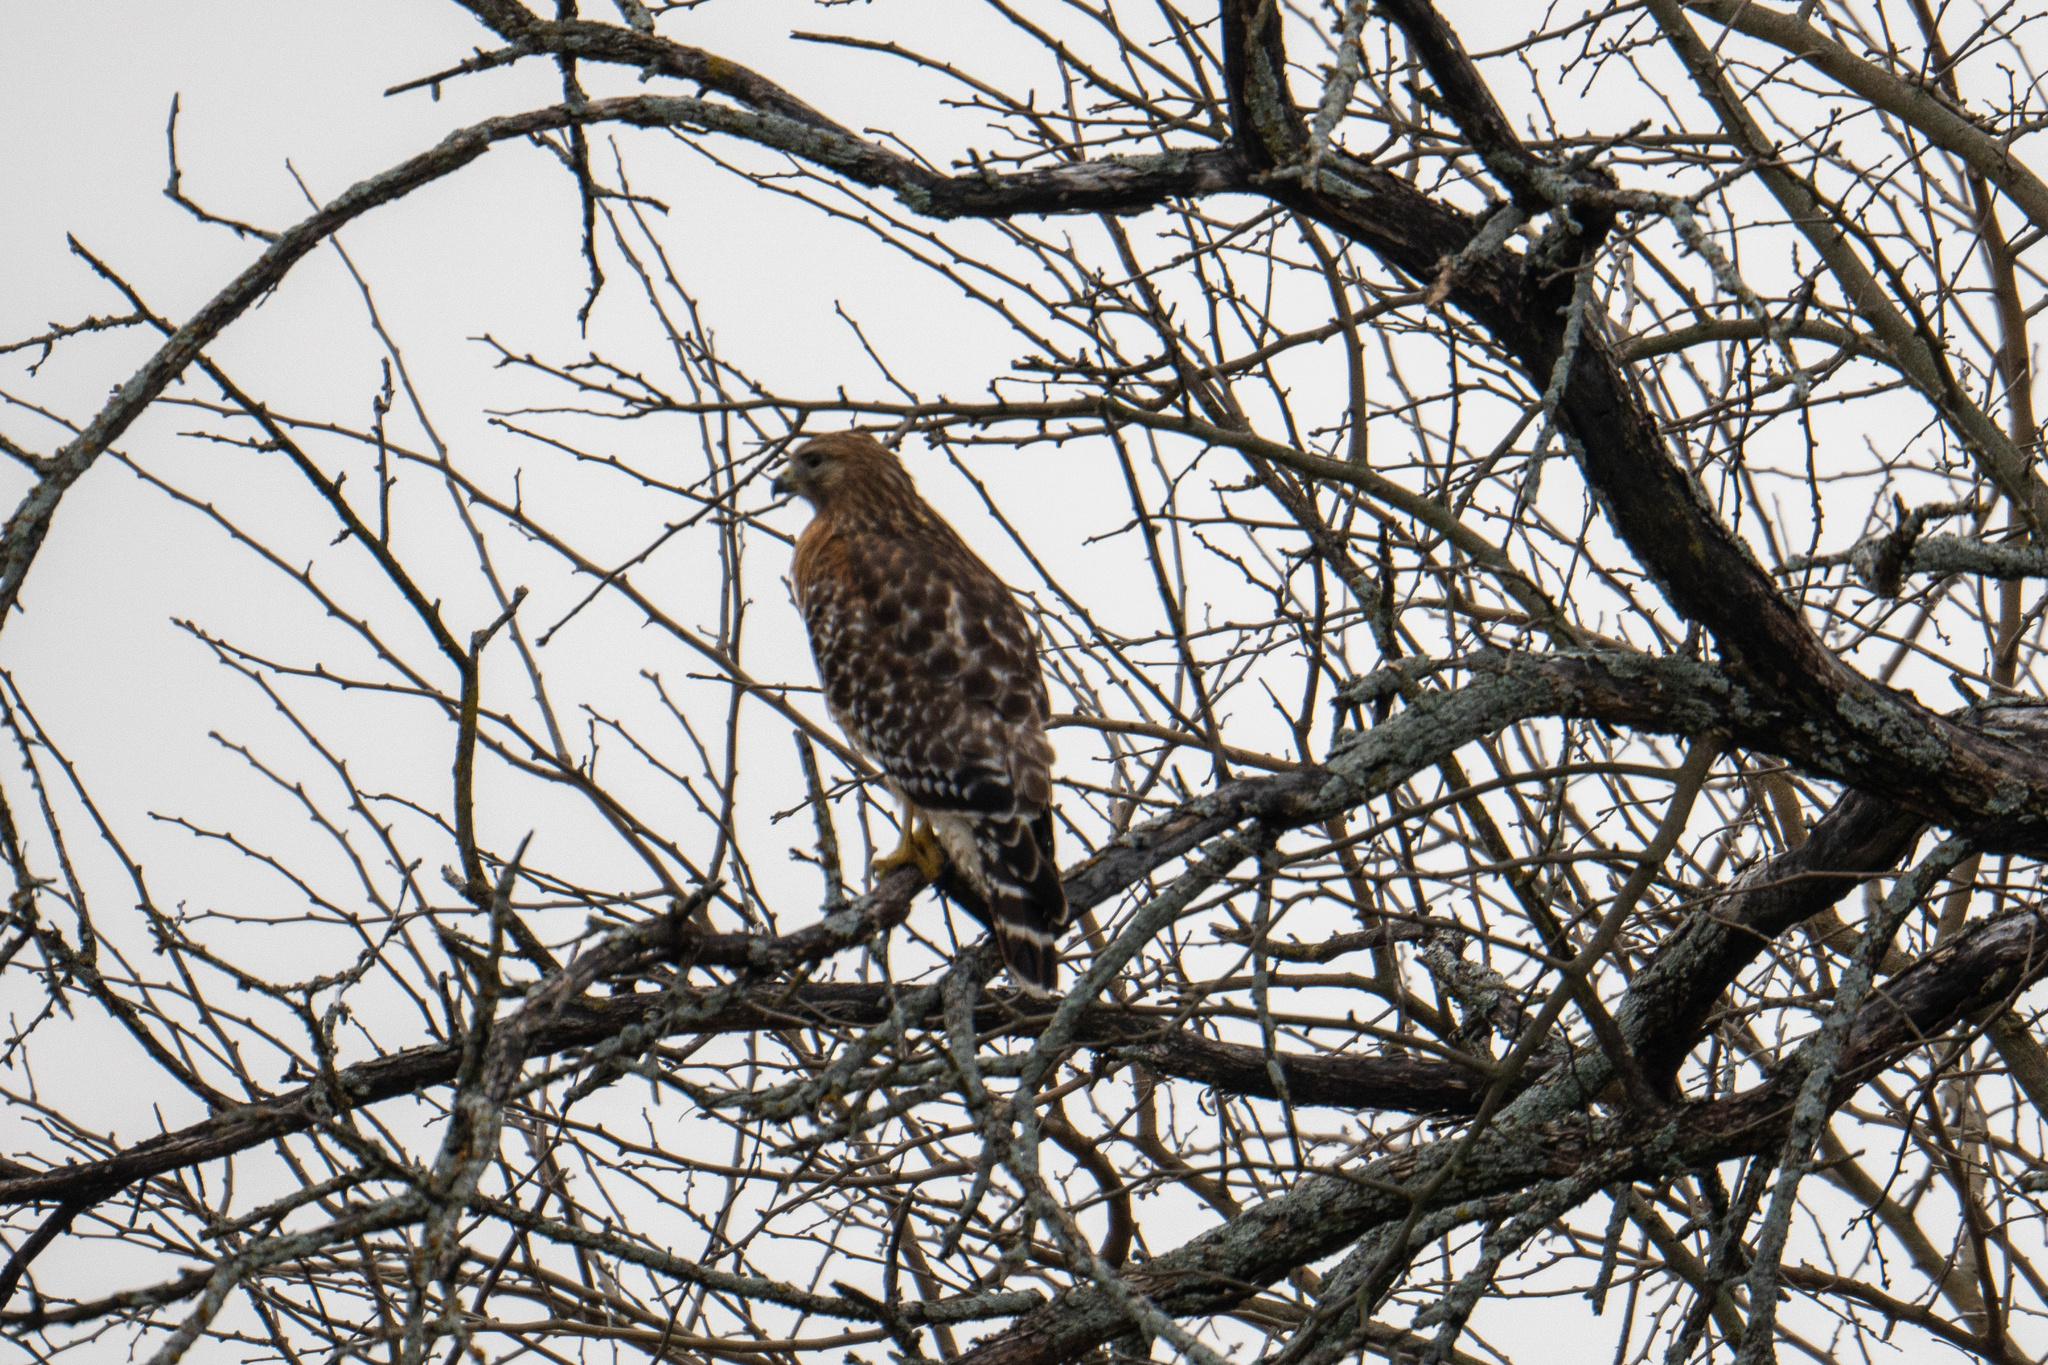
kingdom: Animalia
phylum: Chordata
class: Aves
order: Accipitriformes
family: Accipitridae
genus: Buteo
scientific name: Buteo lineatus
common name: Red-shouldered hawk
